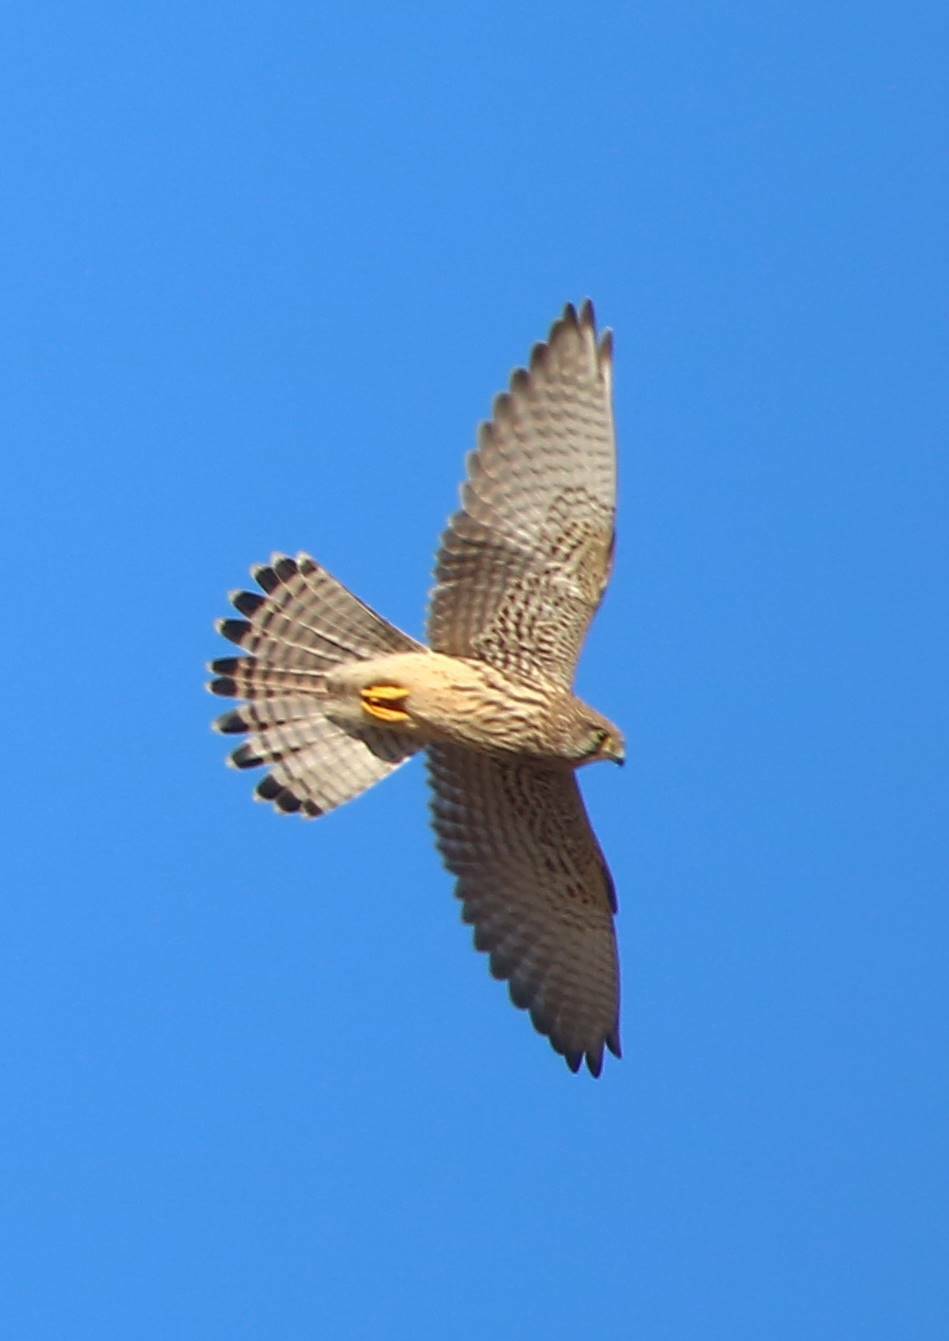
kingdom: Animalia
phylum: Chordata
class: Aves
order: Falconiformes
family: Falconidae
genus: Falco
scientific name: Falco tinnunculus
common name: Common kestrel
